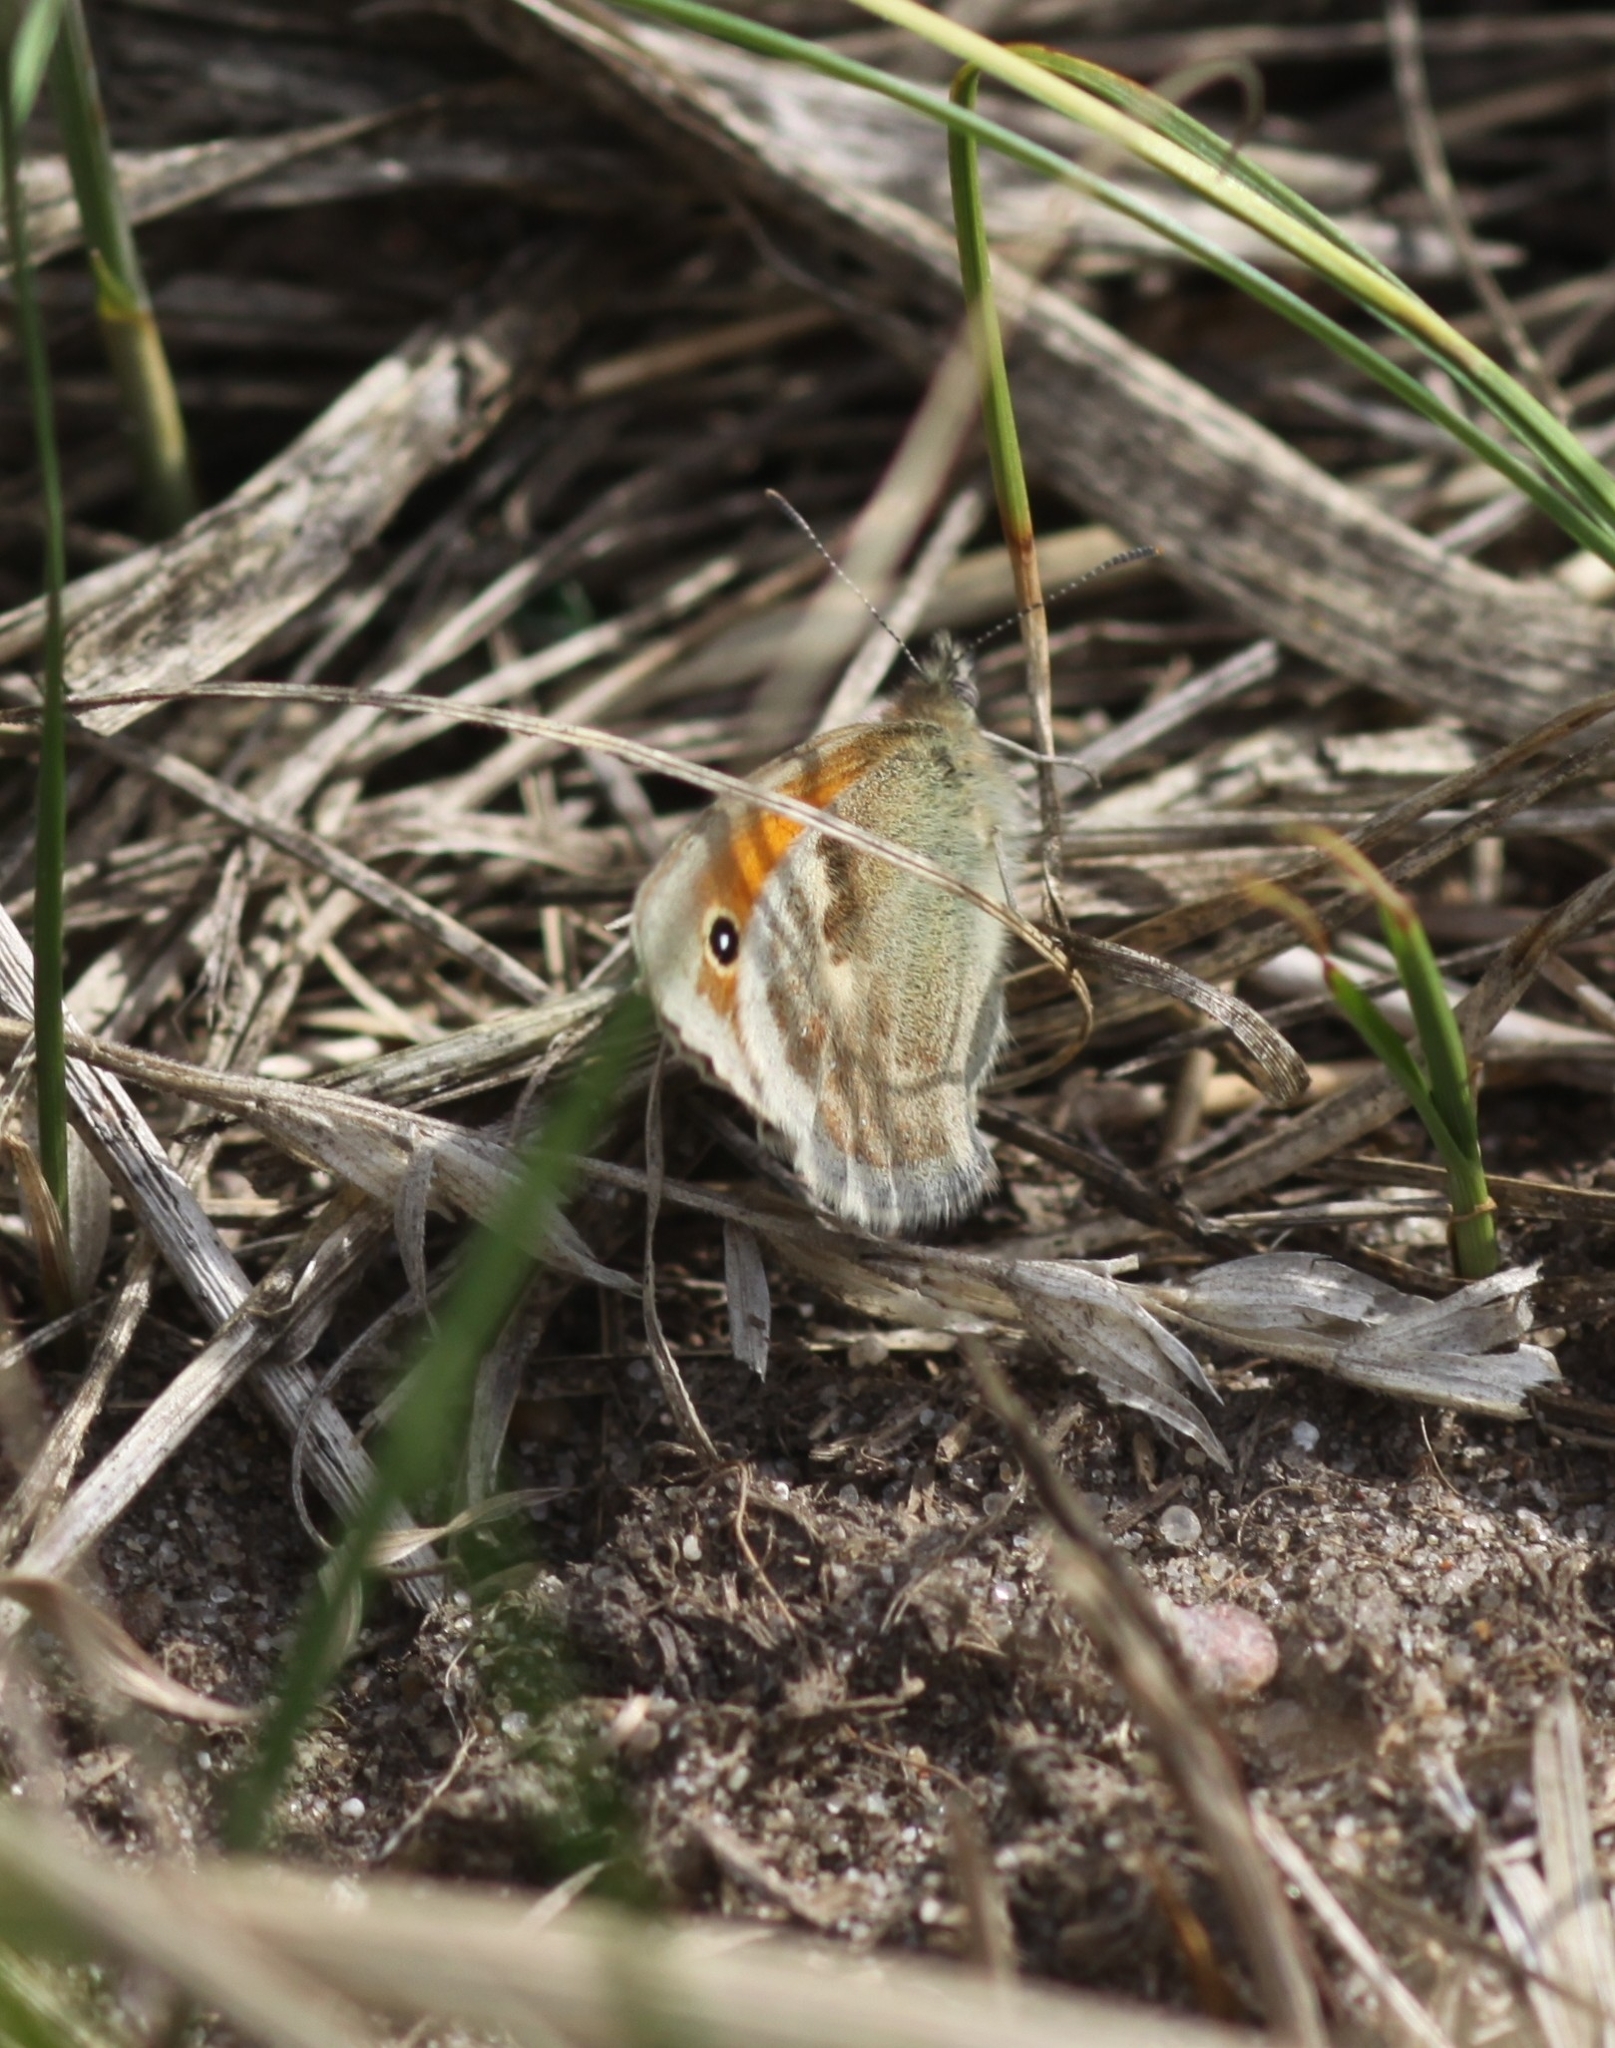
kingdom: Animalia
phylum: Arthropoda
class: Insecta
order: Lepidoptera
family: Nymphalidae
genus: Coenonympha
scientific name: Coenonympha pamphilus
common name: Small heath
